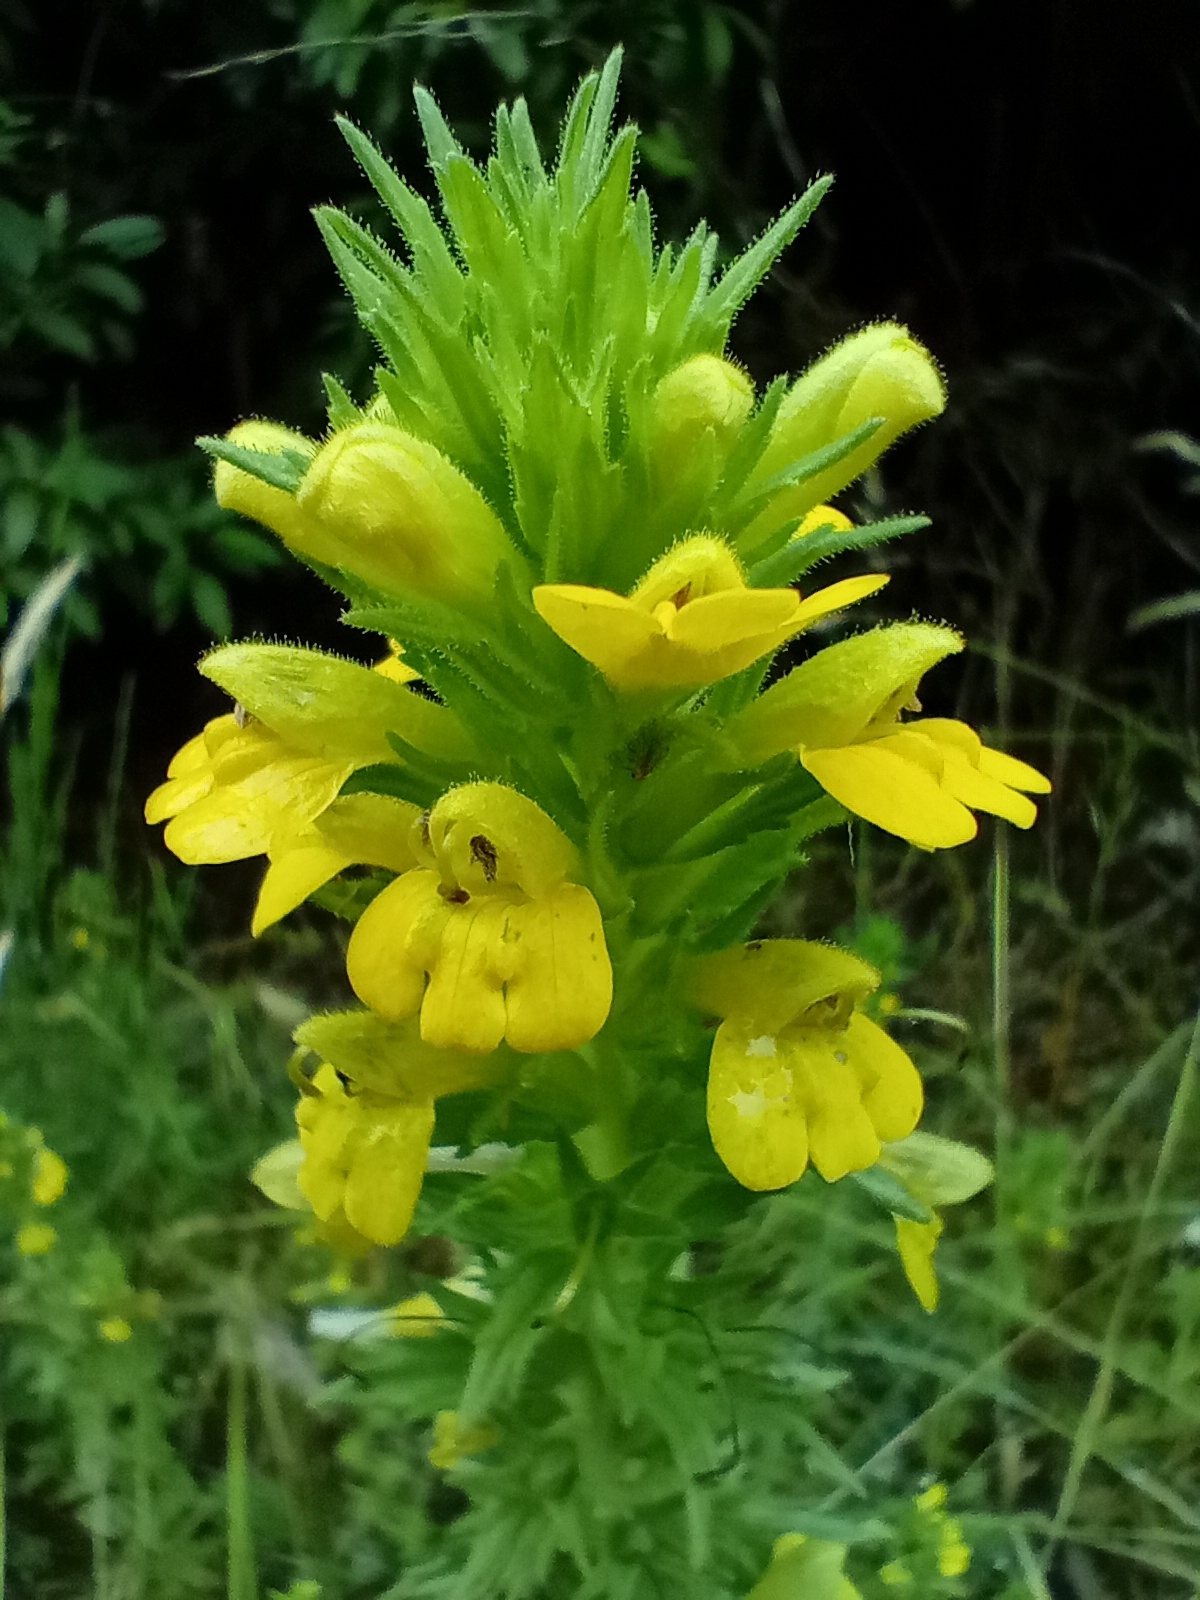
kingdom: Plantae
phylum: Tracheophyta
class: Magnoliopsida
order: Lamiales
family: Orobanchaceae
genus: Bellardia
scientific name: Bellardia viscosa
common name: Sticky parentucellia
